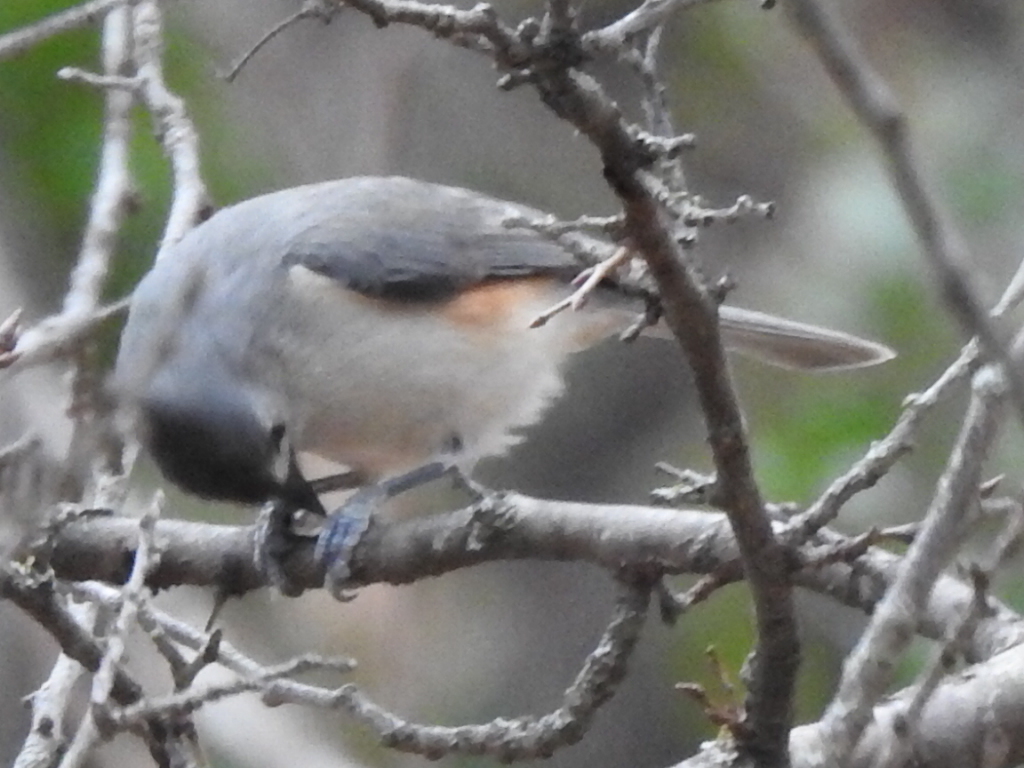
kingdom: Animalia
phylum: Chordata
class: Aves
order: Passeriformes
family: Paridae
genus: Baeolophus
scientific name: Baeolophus
